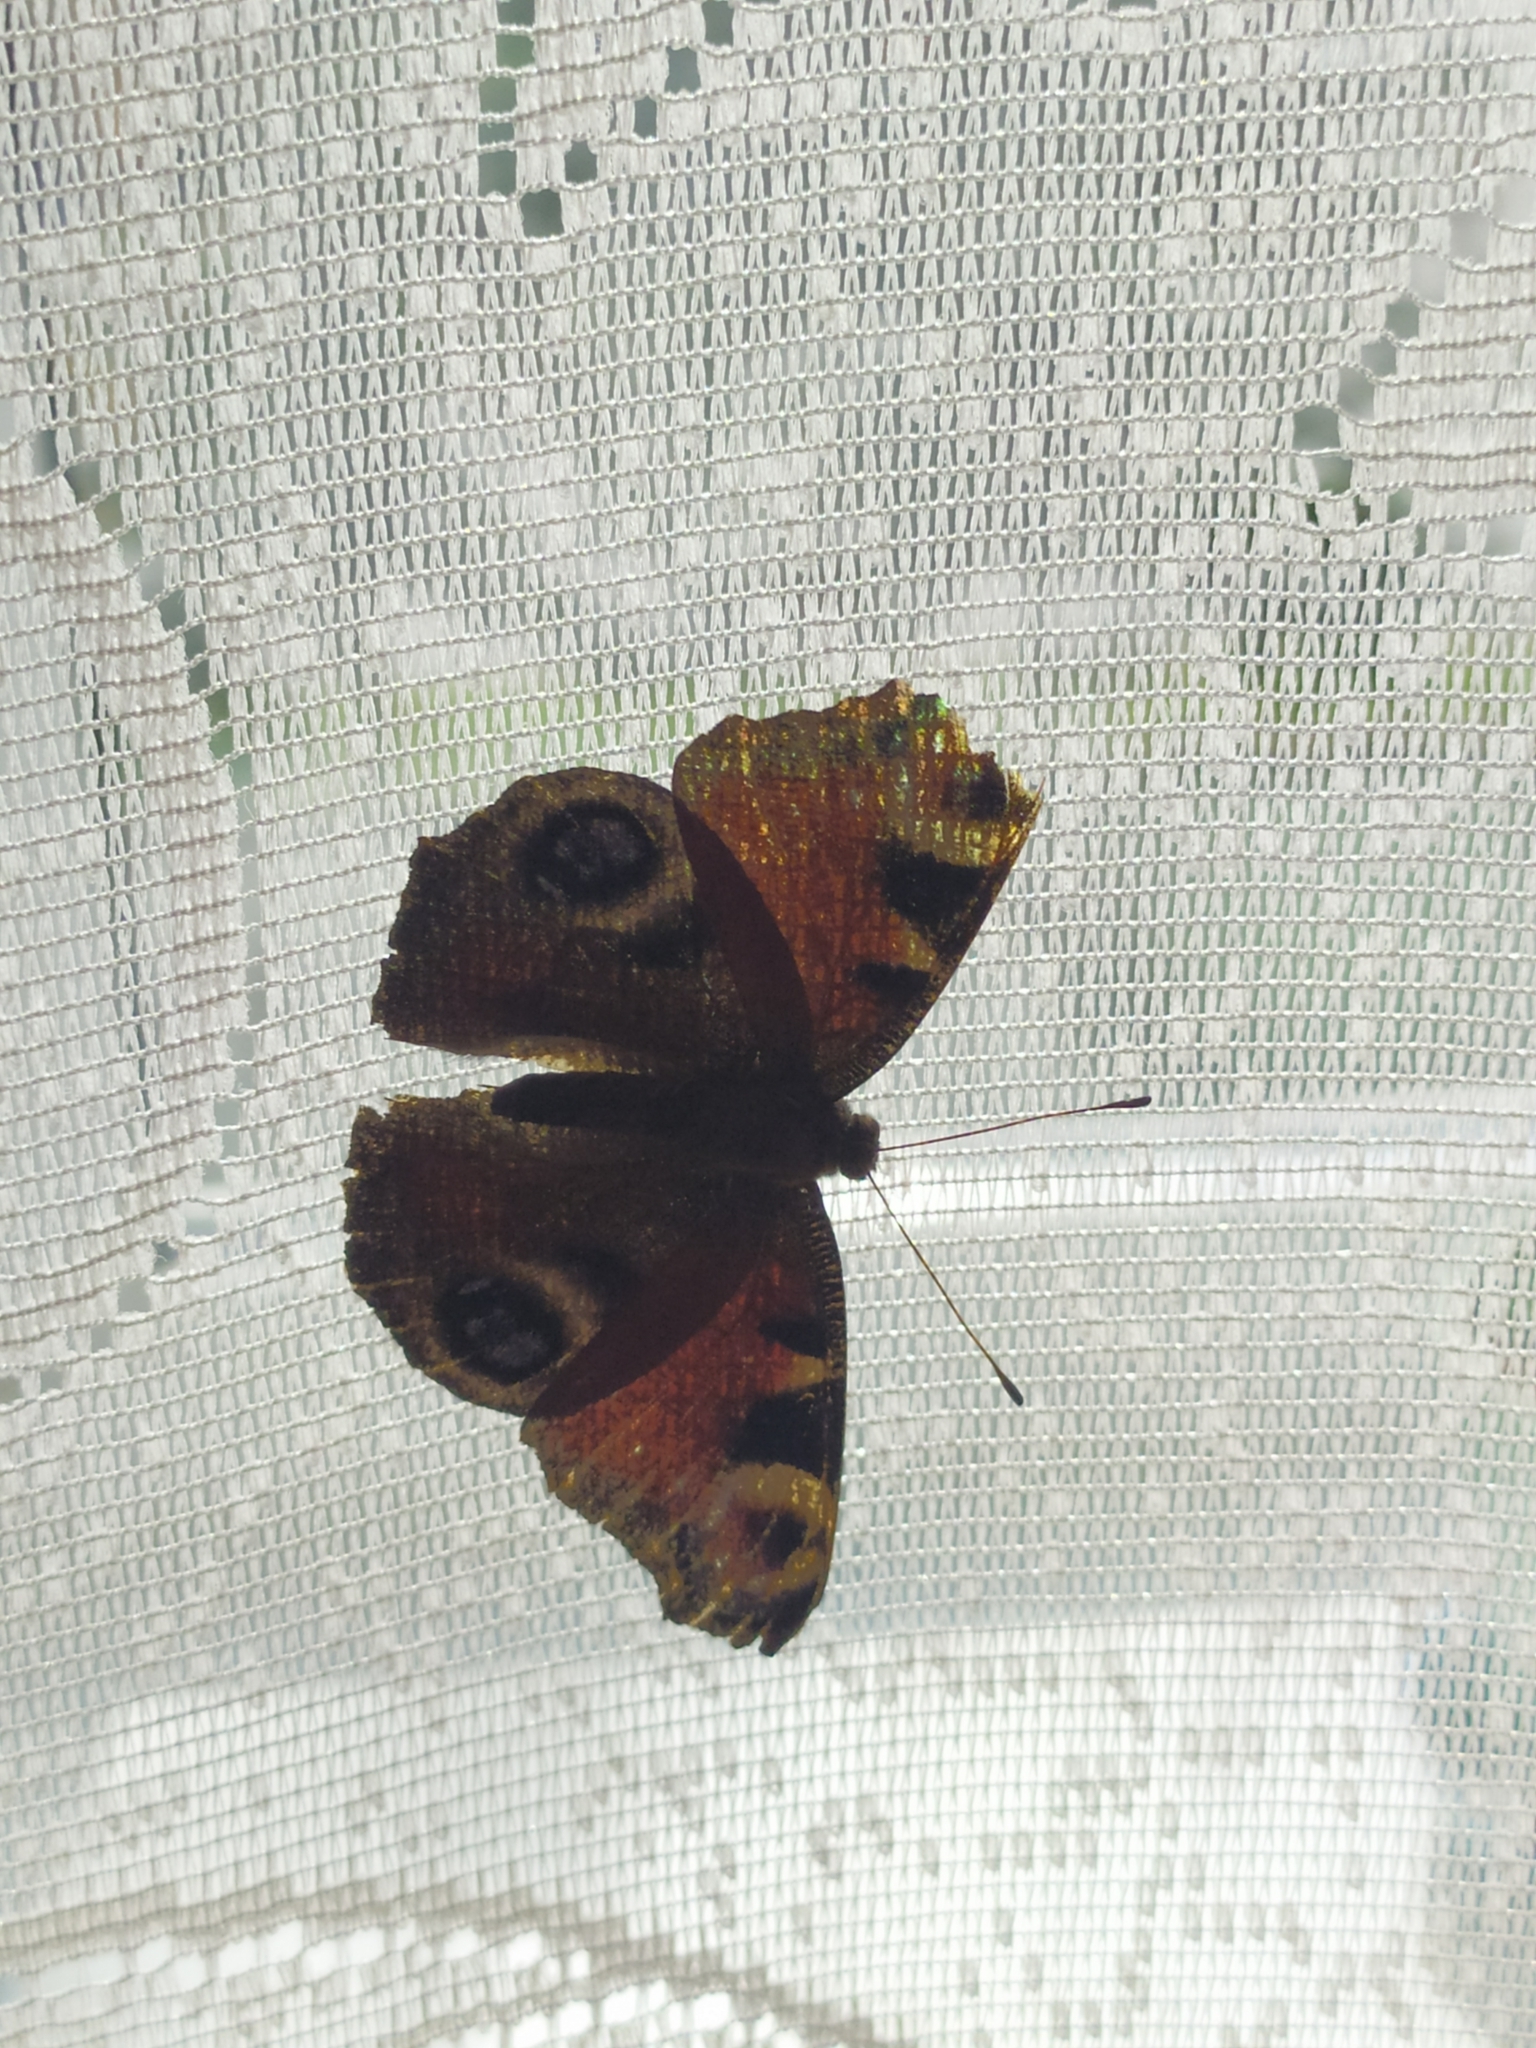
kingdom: Animalia
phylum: Arthropoda
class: Insecta
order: Lepidoptera
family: Nymphalidae
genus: Aglais
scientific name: Aglais io
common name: Peacock
